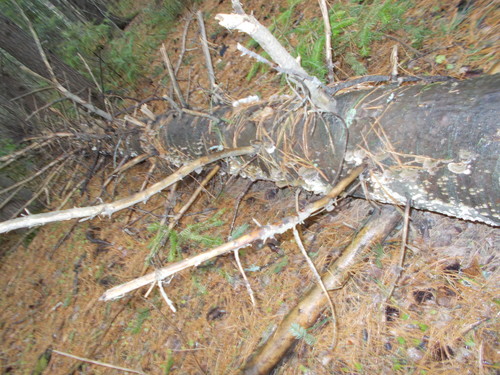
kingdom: Fungi
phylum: Basidiomycota
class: Agaricomycetes
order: Hymenochaetales
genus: Trichaptum
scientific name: Trichaptum fuscoviolaceum
